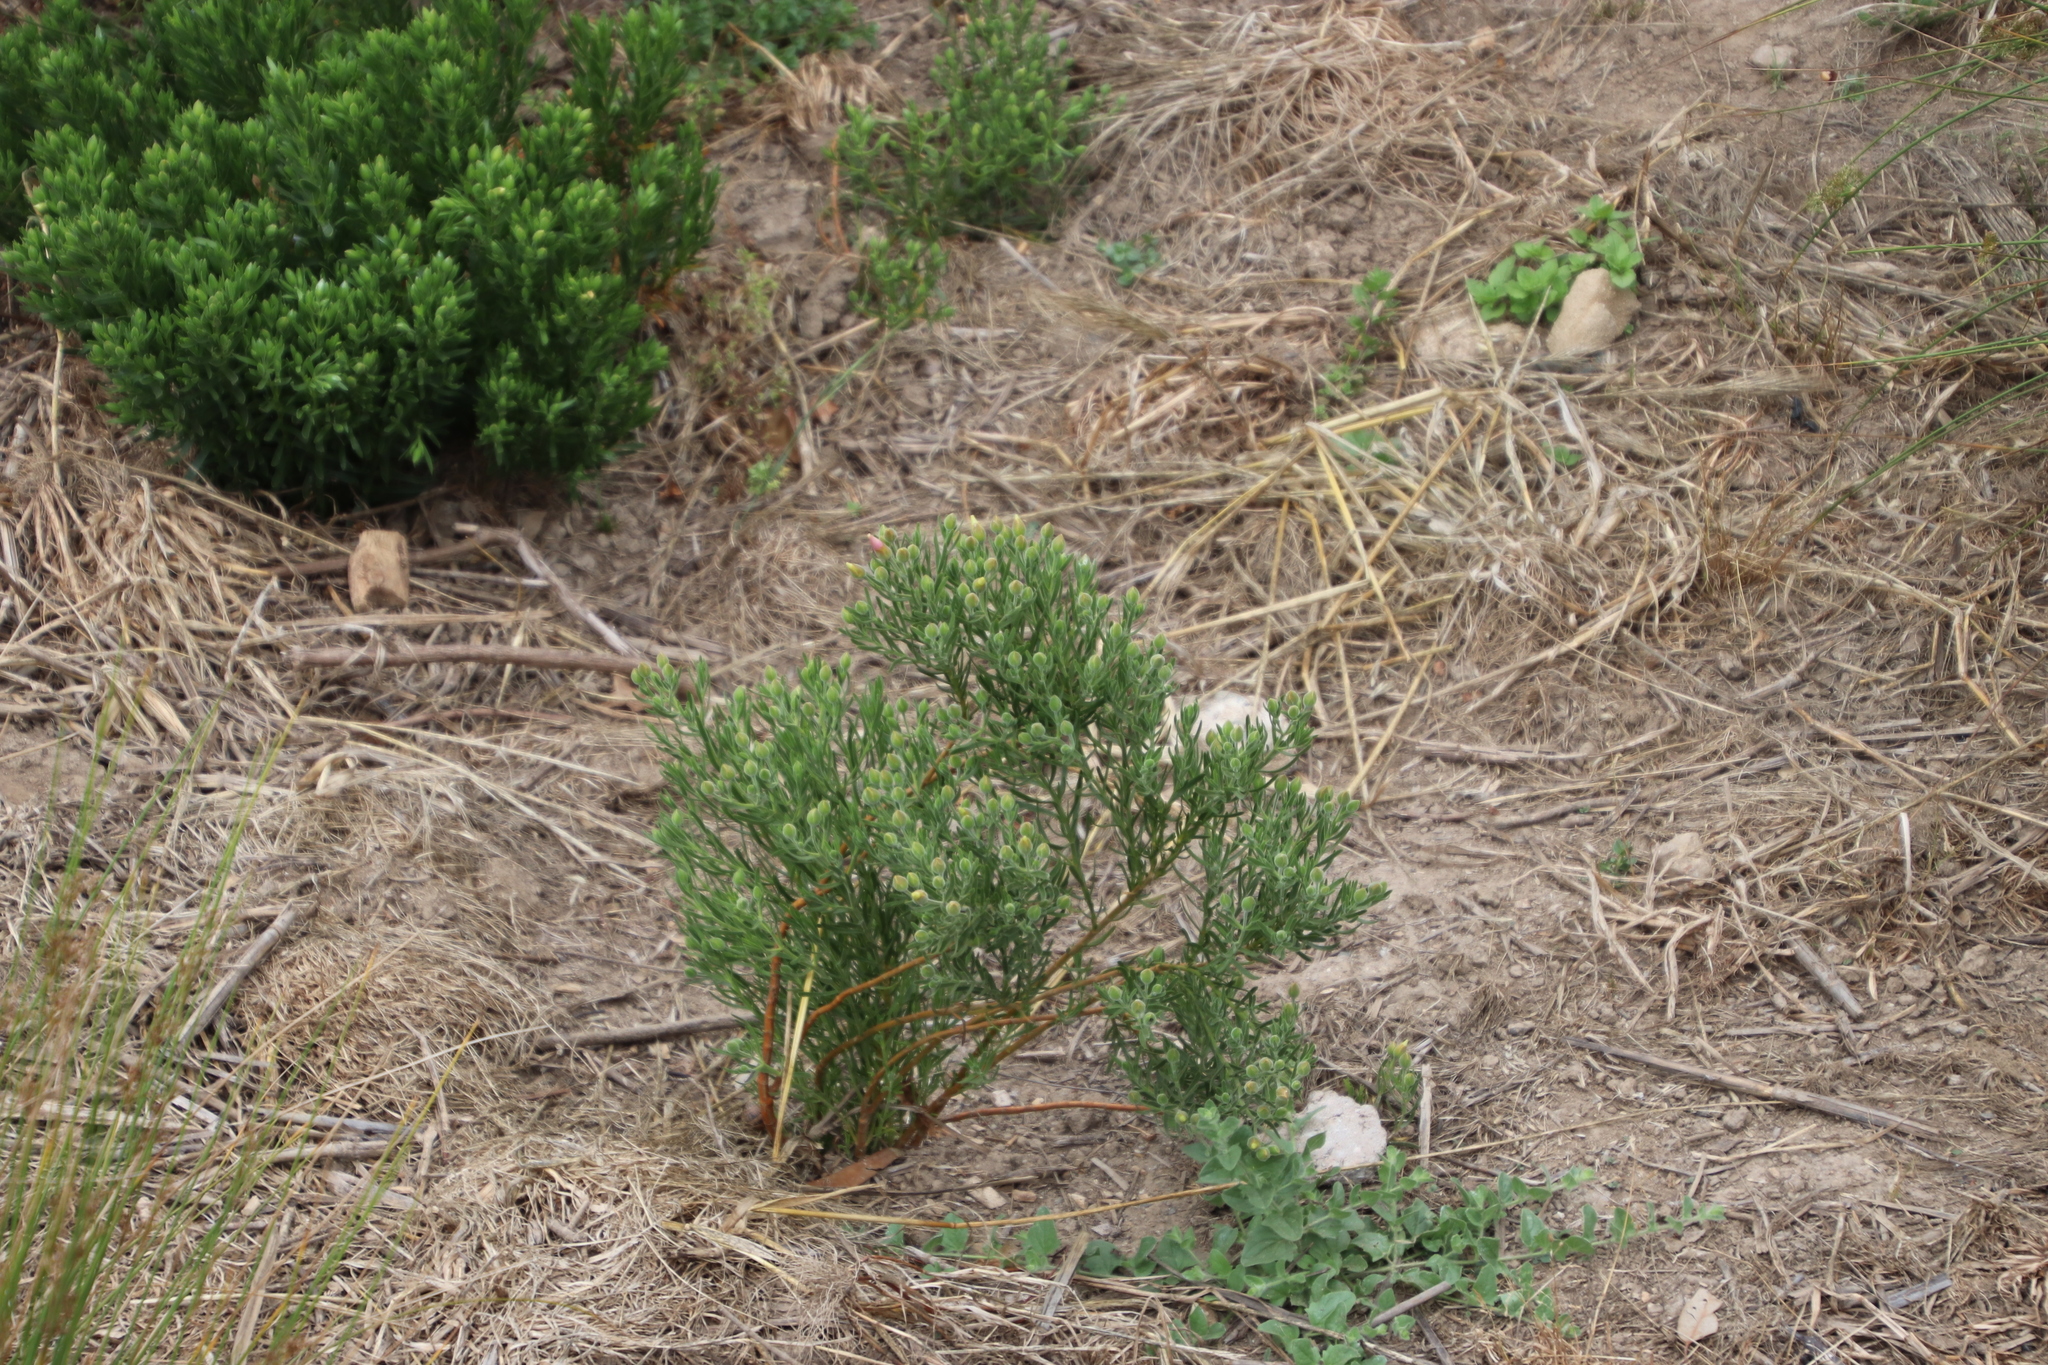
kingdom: Plantae
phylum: Tracheophyta
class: Magnoliopsida
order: Gentianales
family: Gentianaceae
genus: Orphium
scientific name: Orphium frutescens
